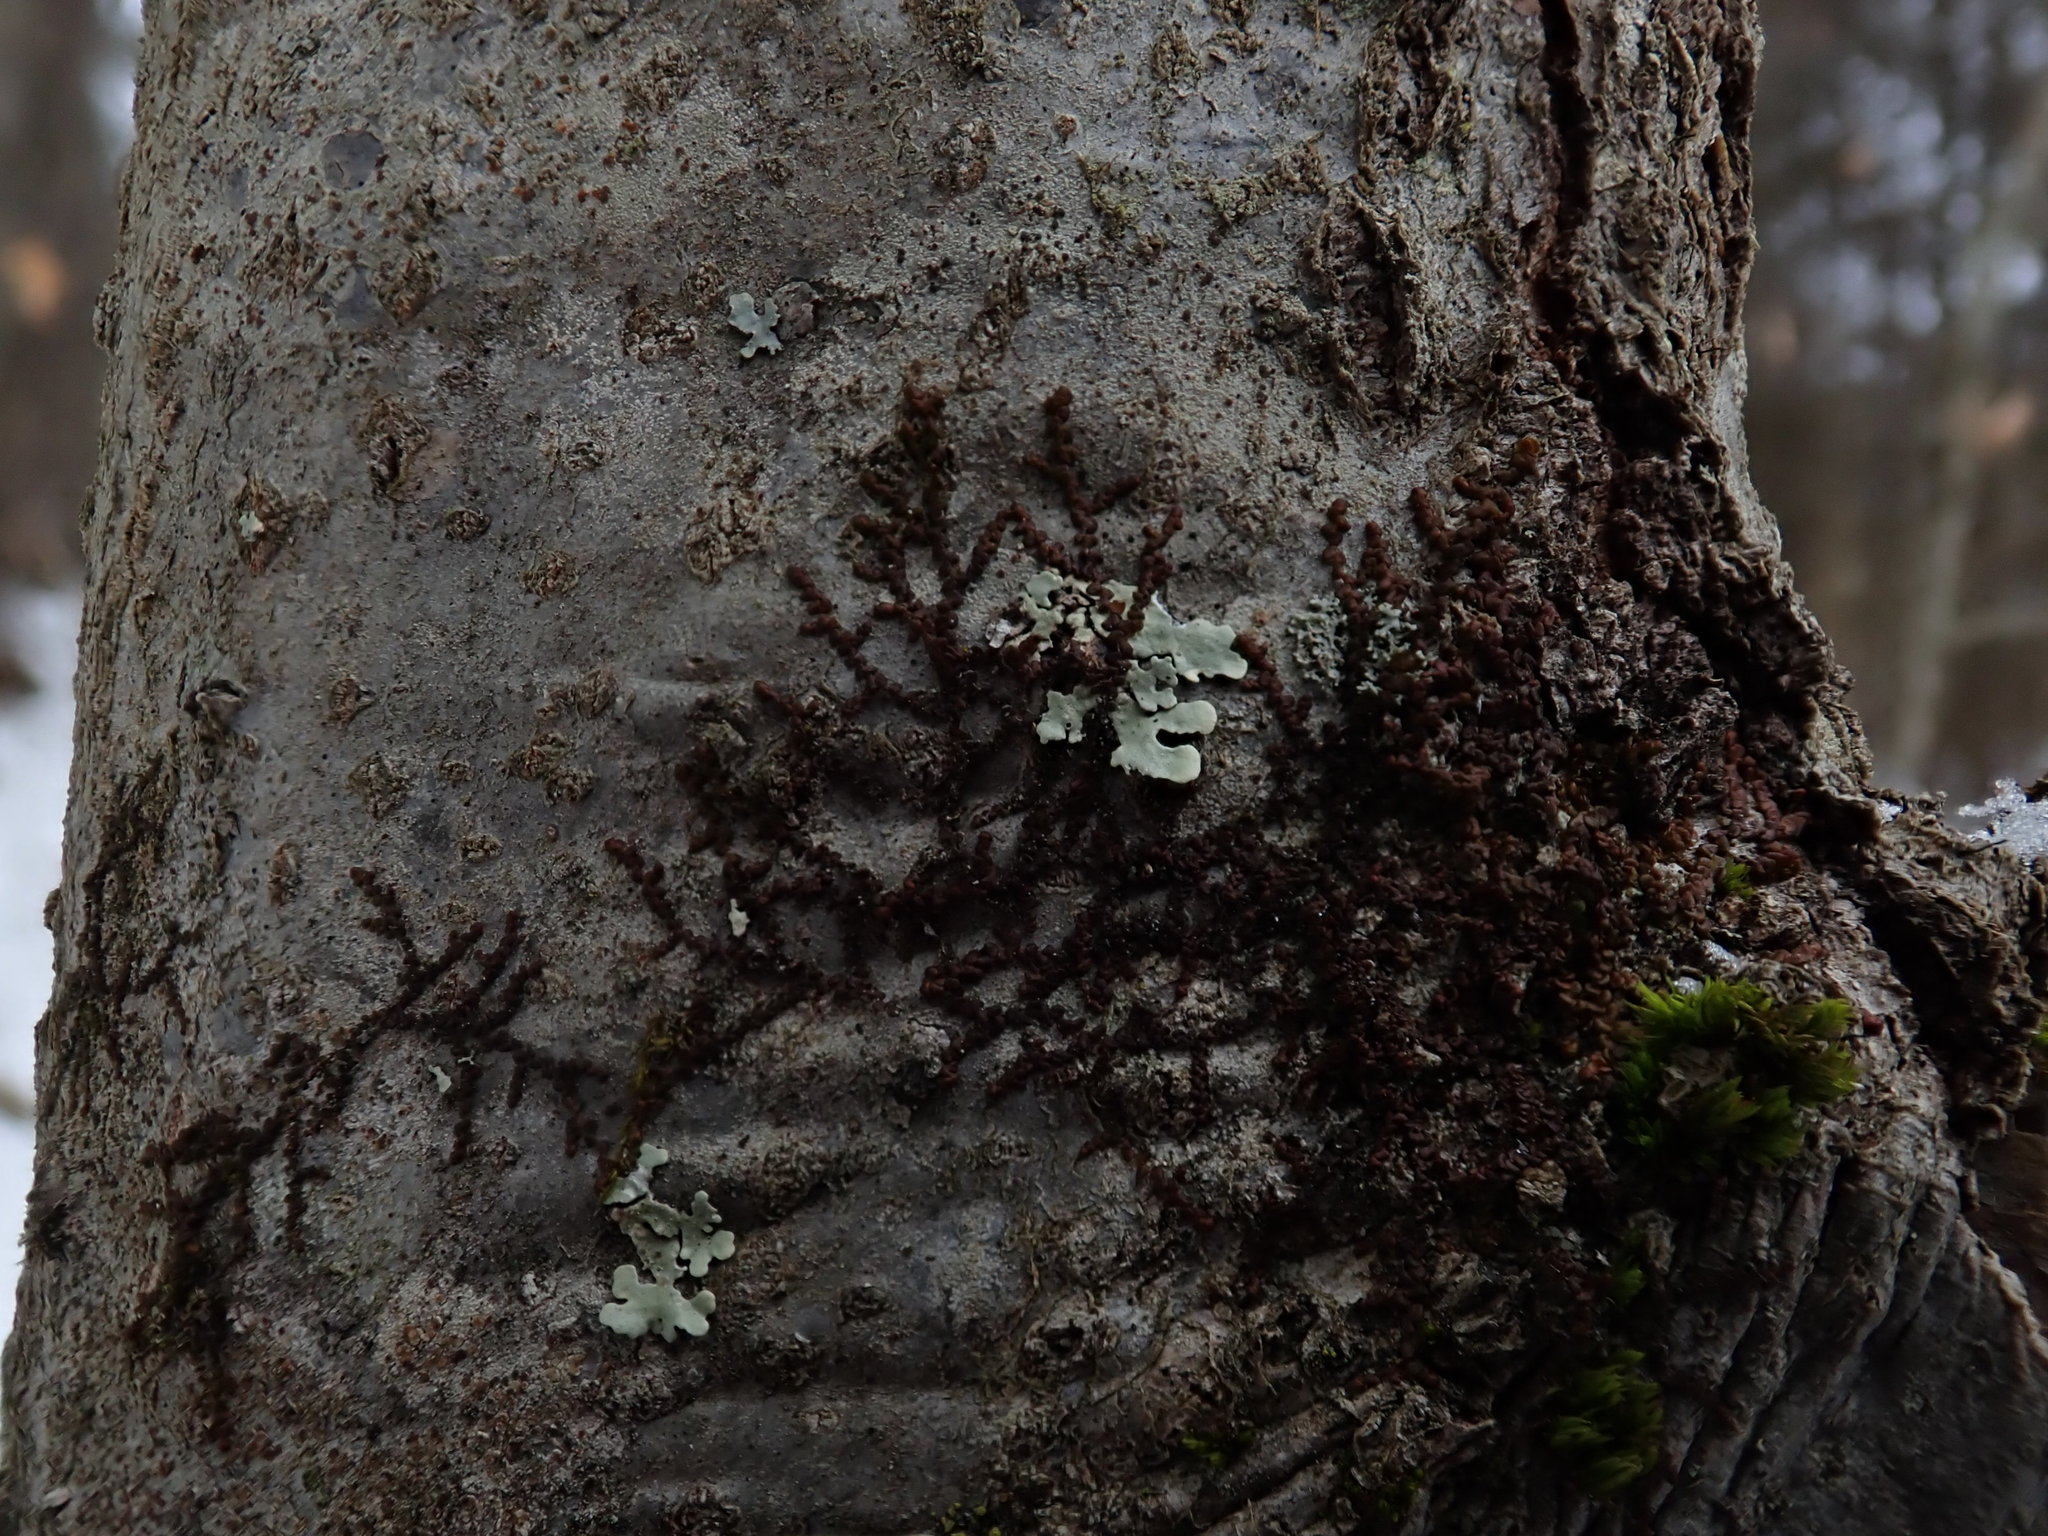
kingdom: Plantae
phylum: Marchantiophyta
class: Jungermanniopsida
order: Porellales
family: Frullaniaceae
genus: Frullania
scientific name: Frullania
